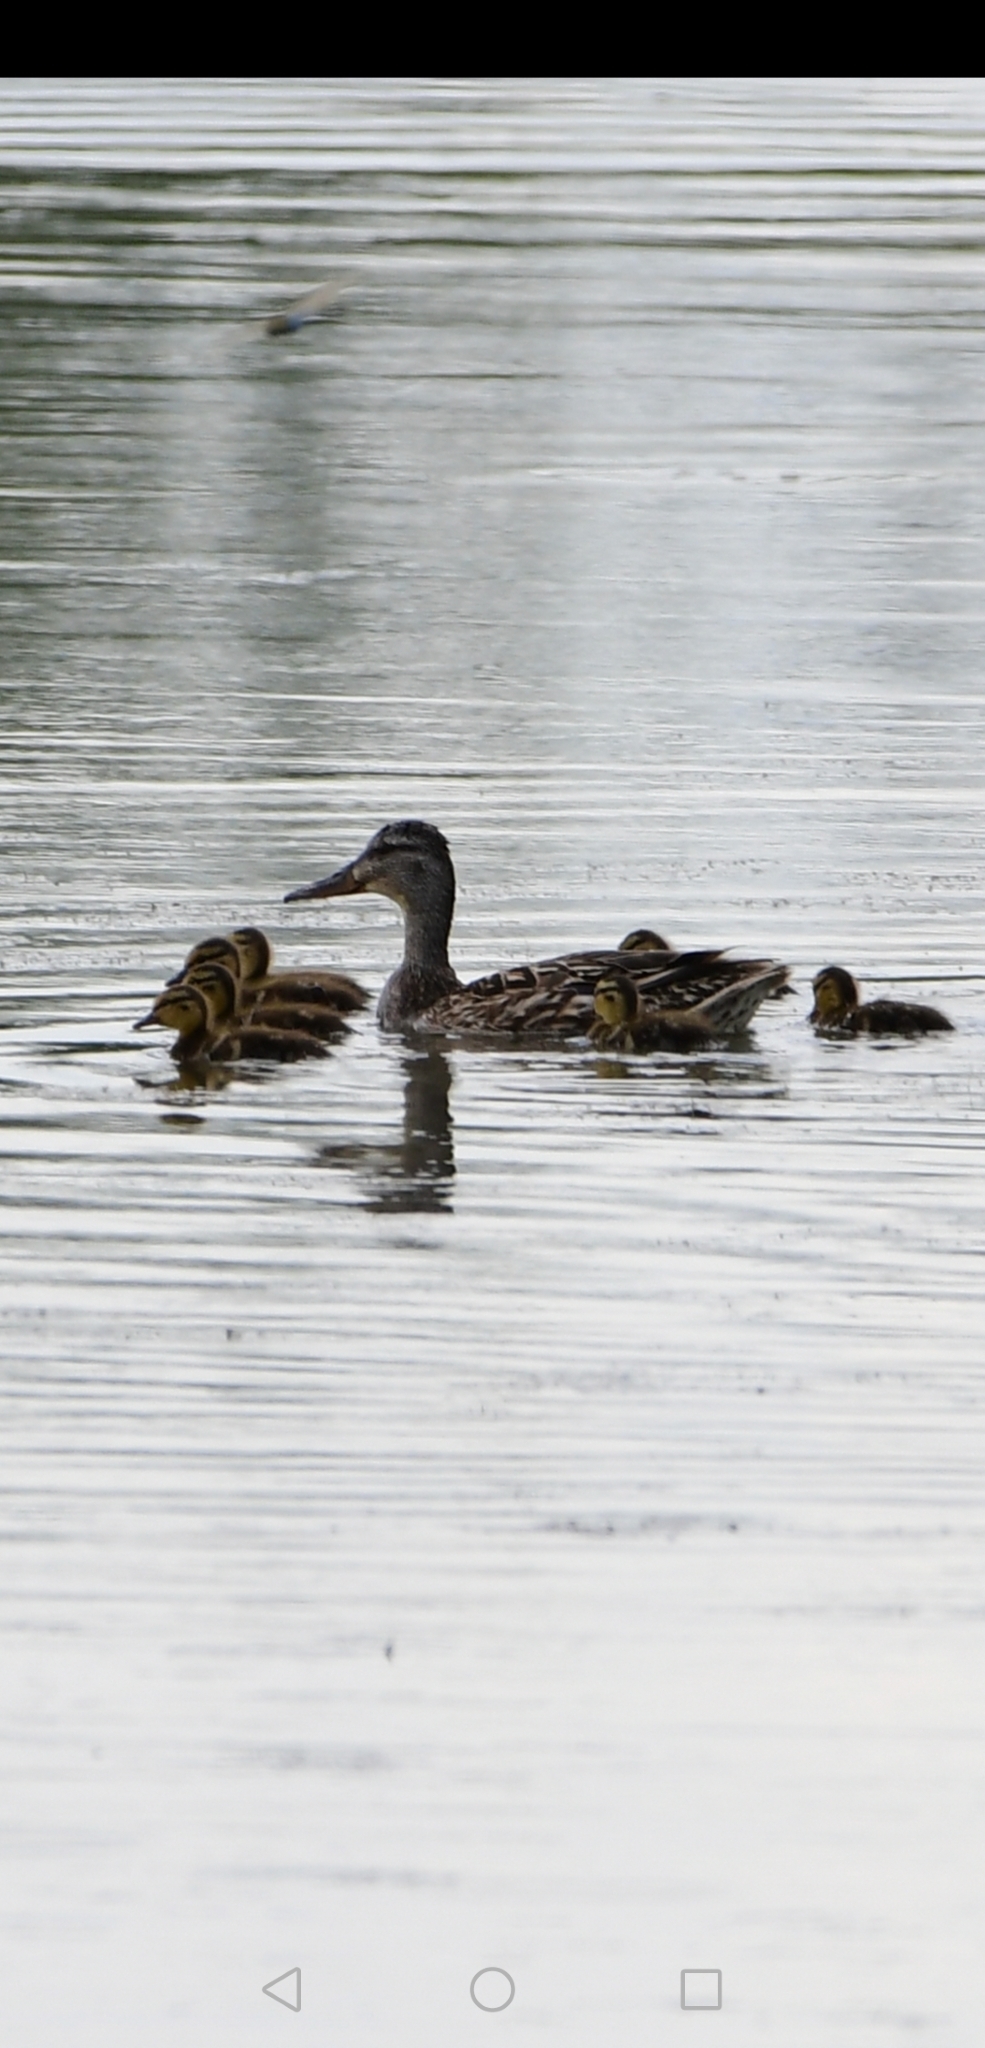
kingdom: Animalia
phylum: Chordata
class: Aves
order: Anseriformes
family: Anatidae
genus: Anas
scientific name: Anas platyrhynchos
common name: Mallard
